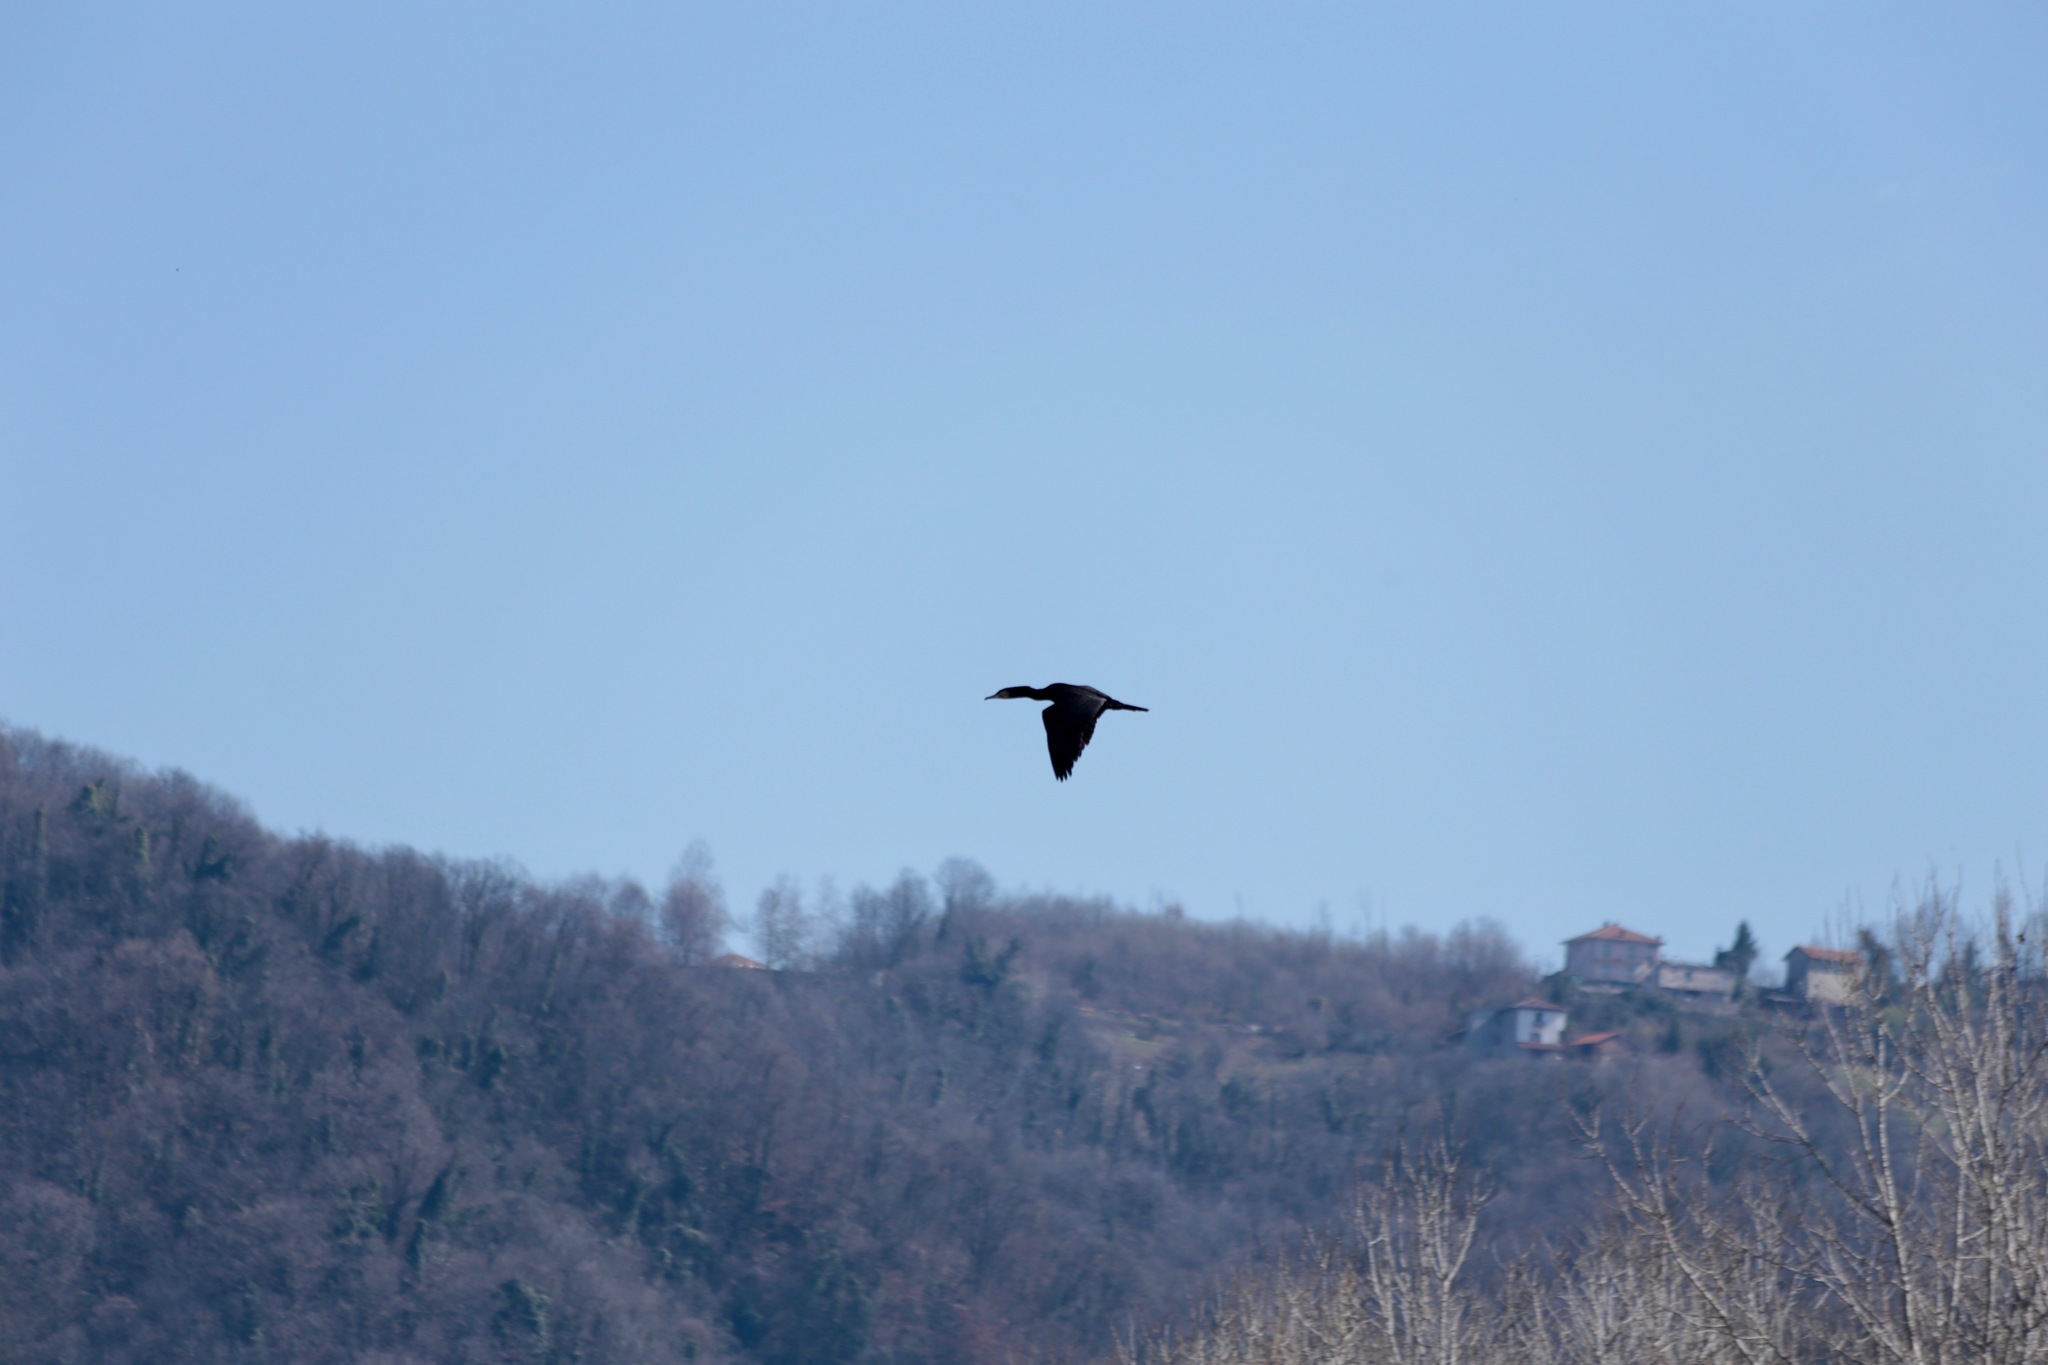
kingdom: Animalia
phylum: Chordata
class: Aves
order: Suliformes
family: Phalacrocoracidae
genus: Phalacrocorax
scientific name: Phalacrocorax carbo
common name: Great cormorant
